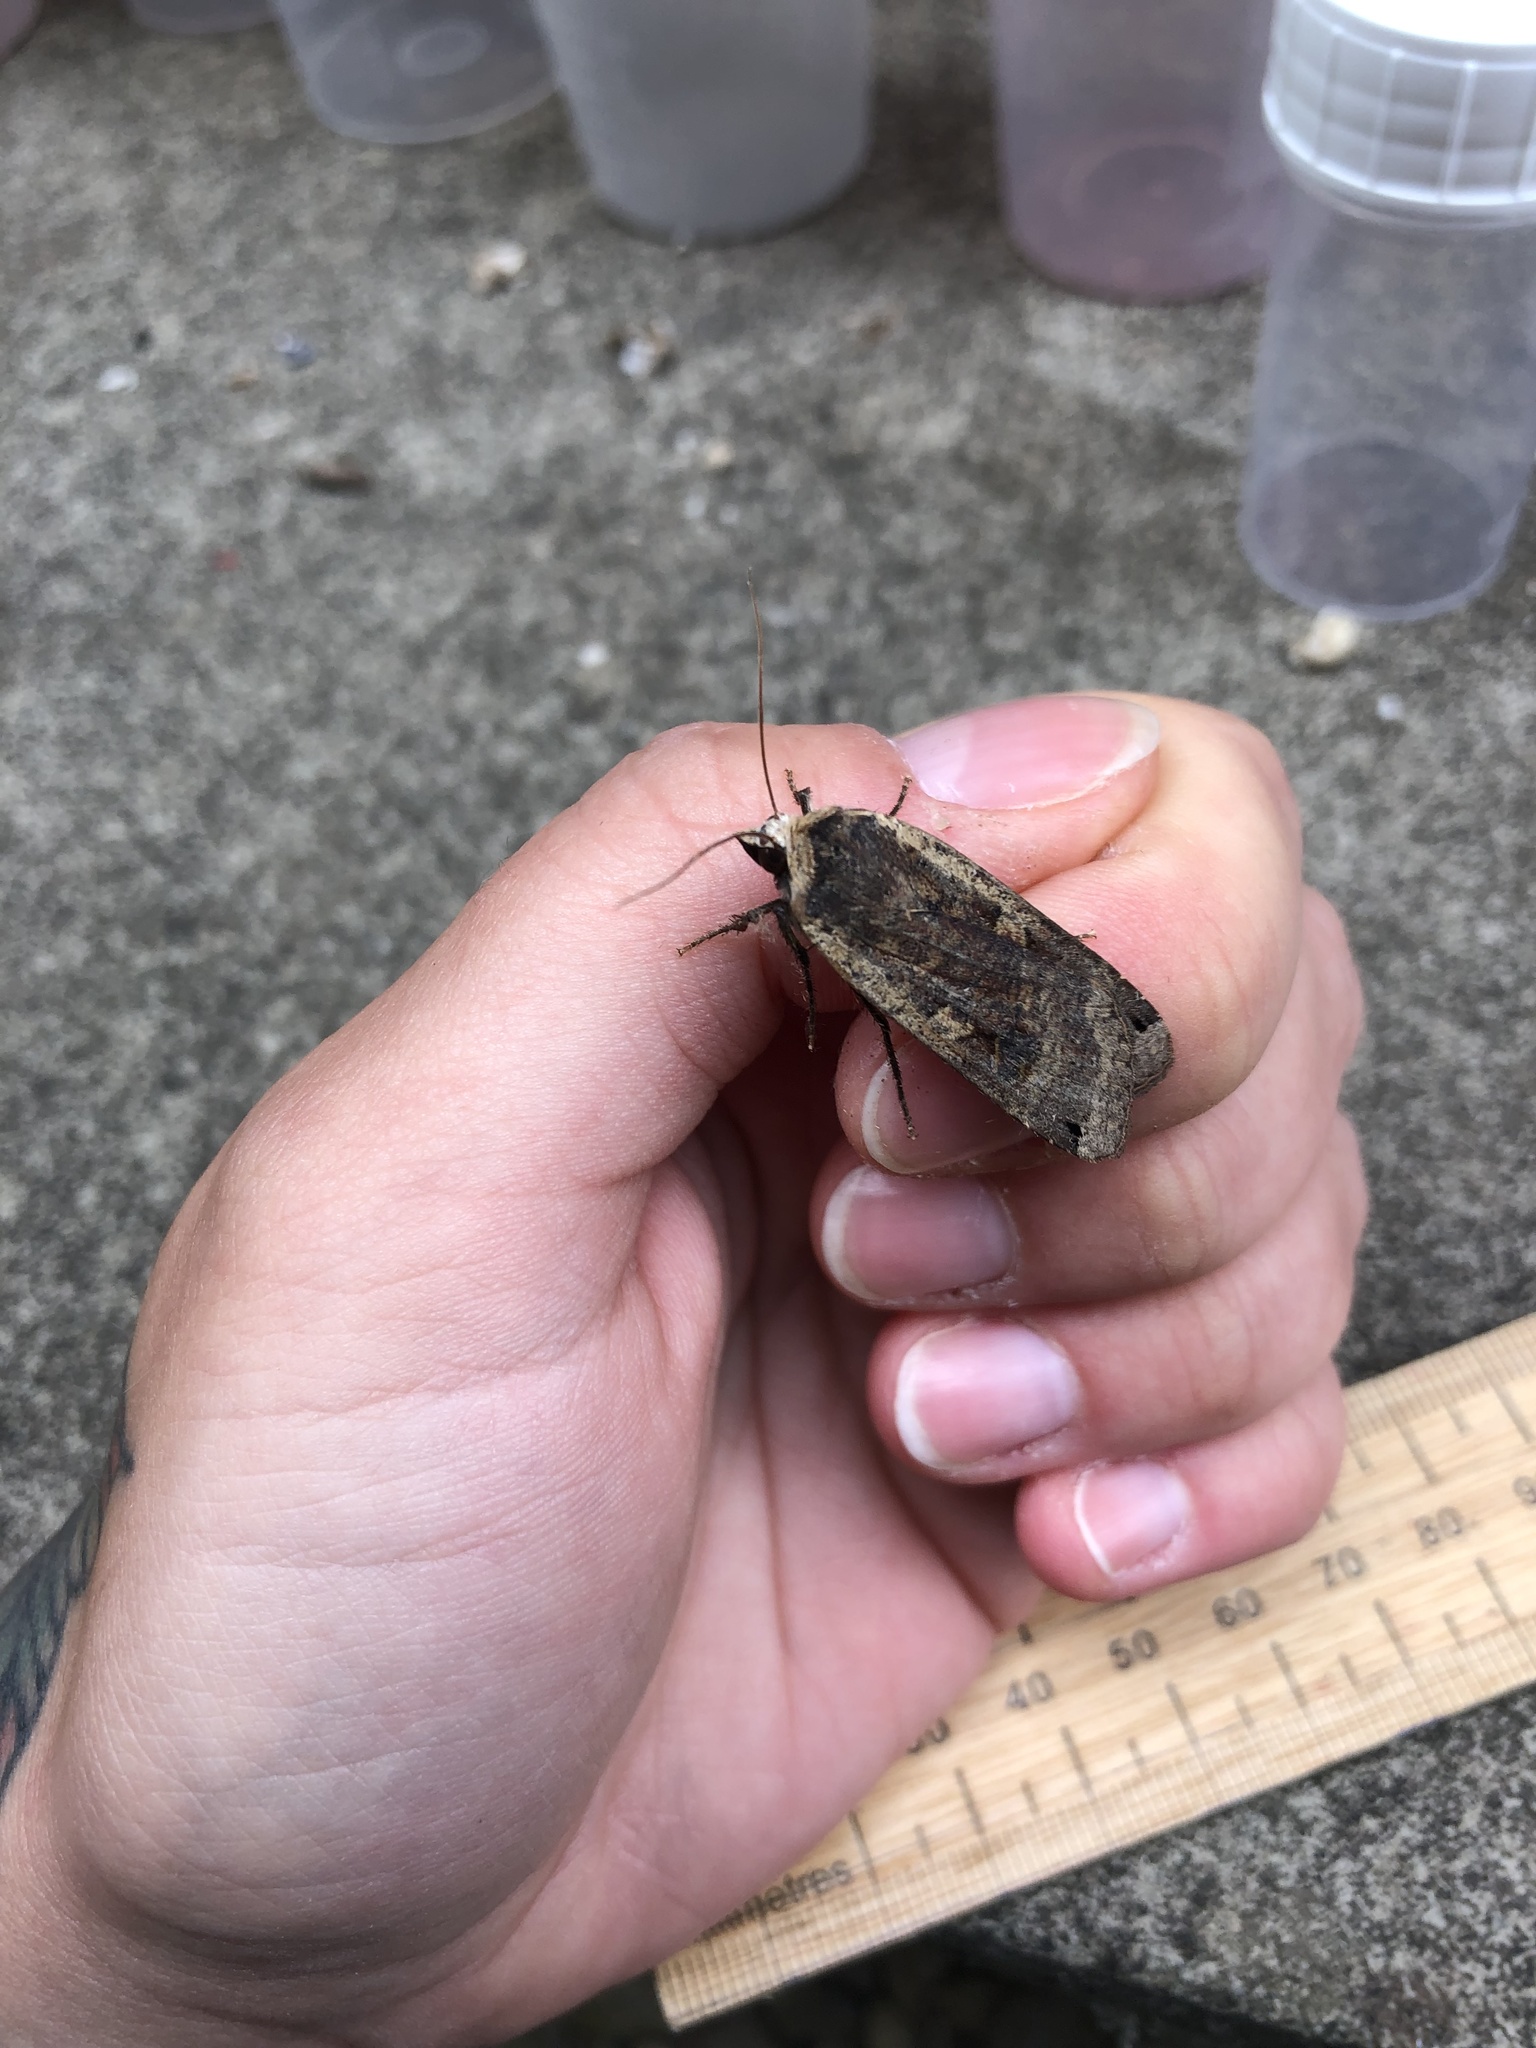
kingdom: Animalia
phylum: Arthropoda
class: Insecta
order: Lepidoptera
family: Noctuidae
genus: Noctua
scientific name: Noctua pronuba
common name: Large yellow underwing
